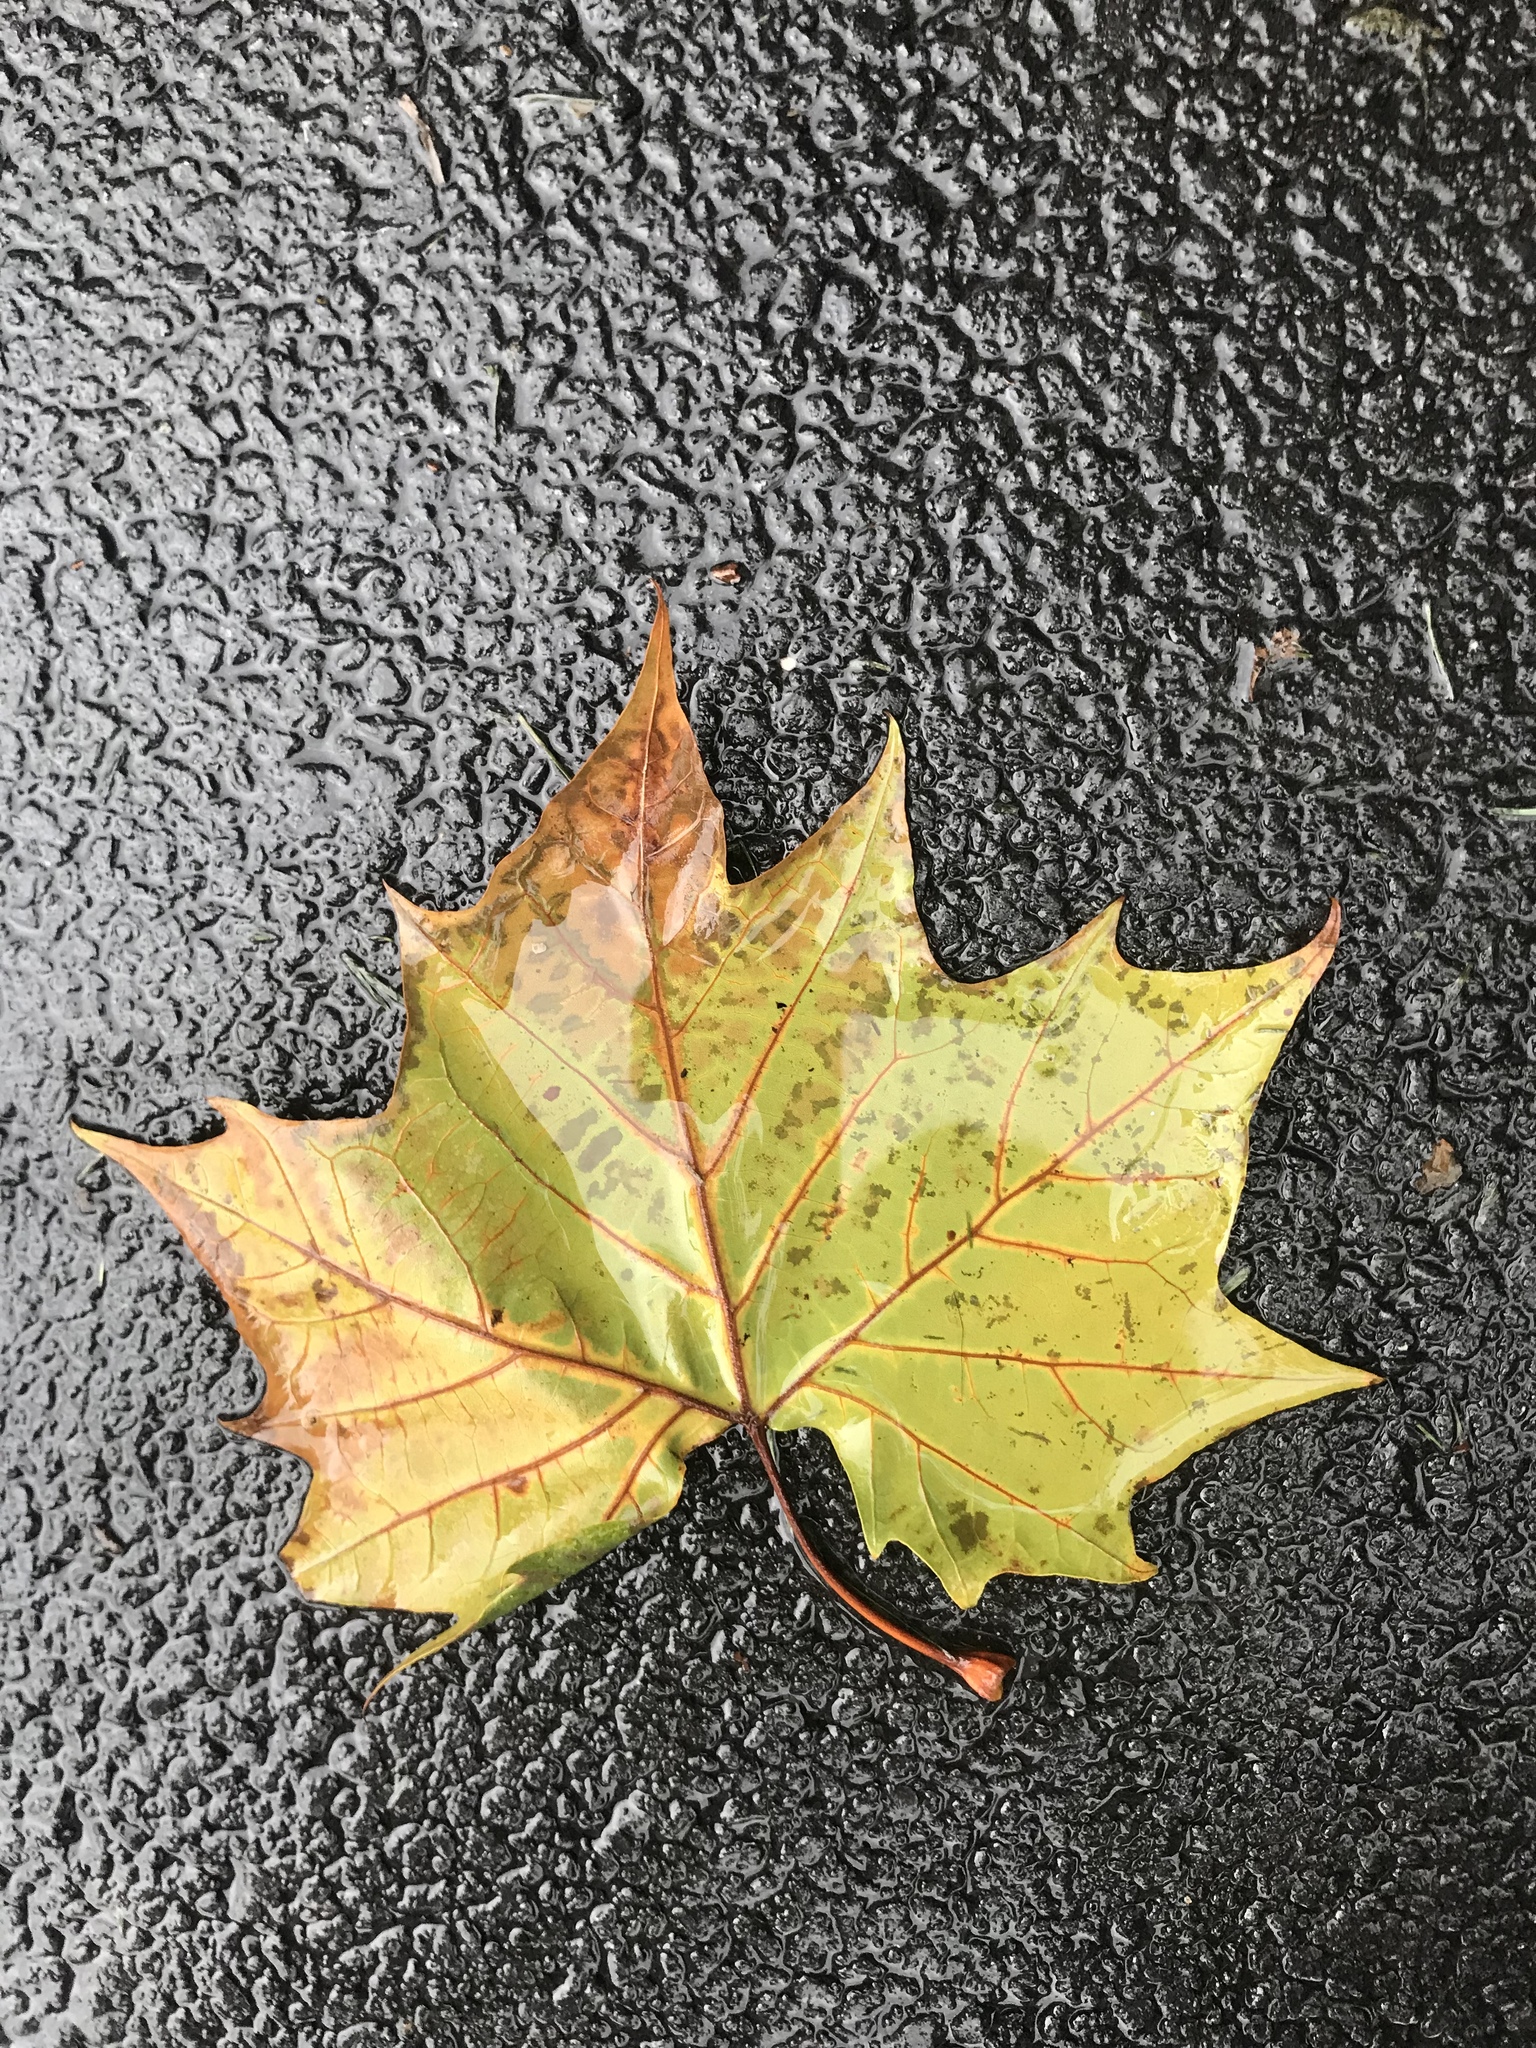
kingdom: Plantae
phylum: Tracheophyta
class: Magnoliopsida
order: Proteales
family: Platanaceae
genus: Platanus
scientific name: Platanus occidentalis
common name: American sycamore
